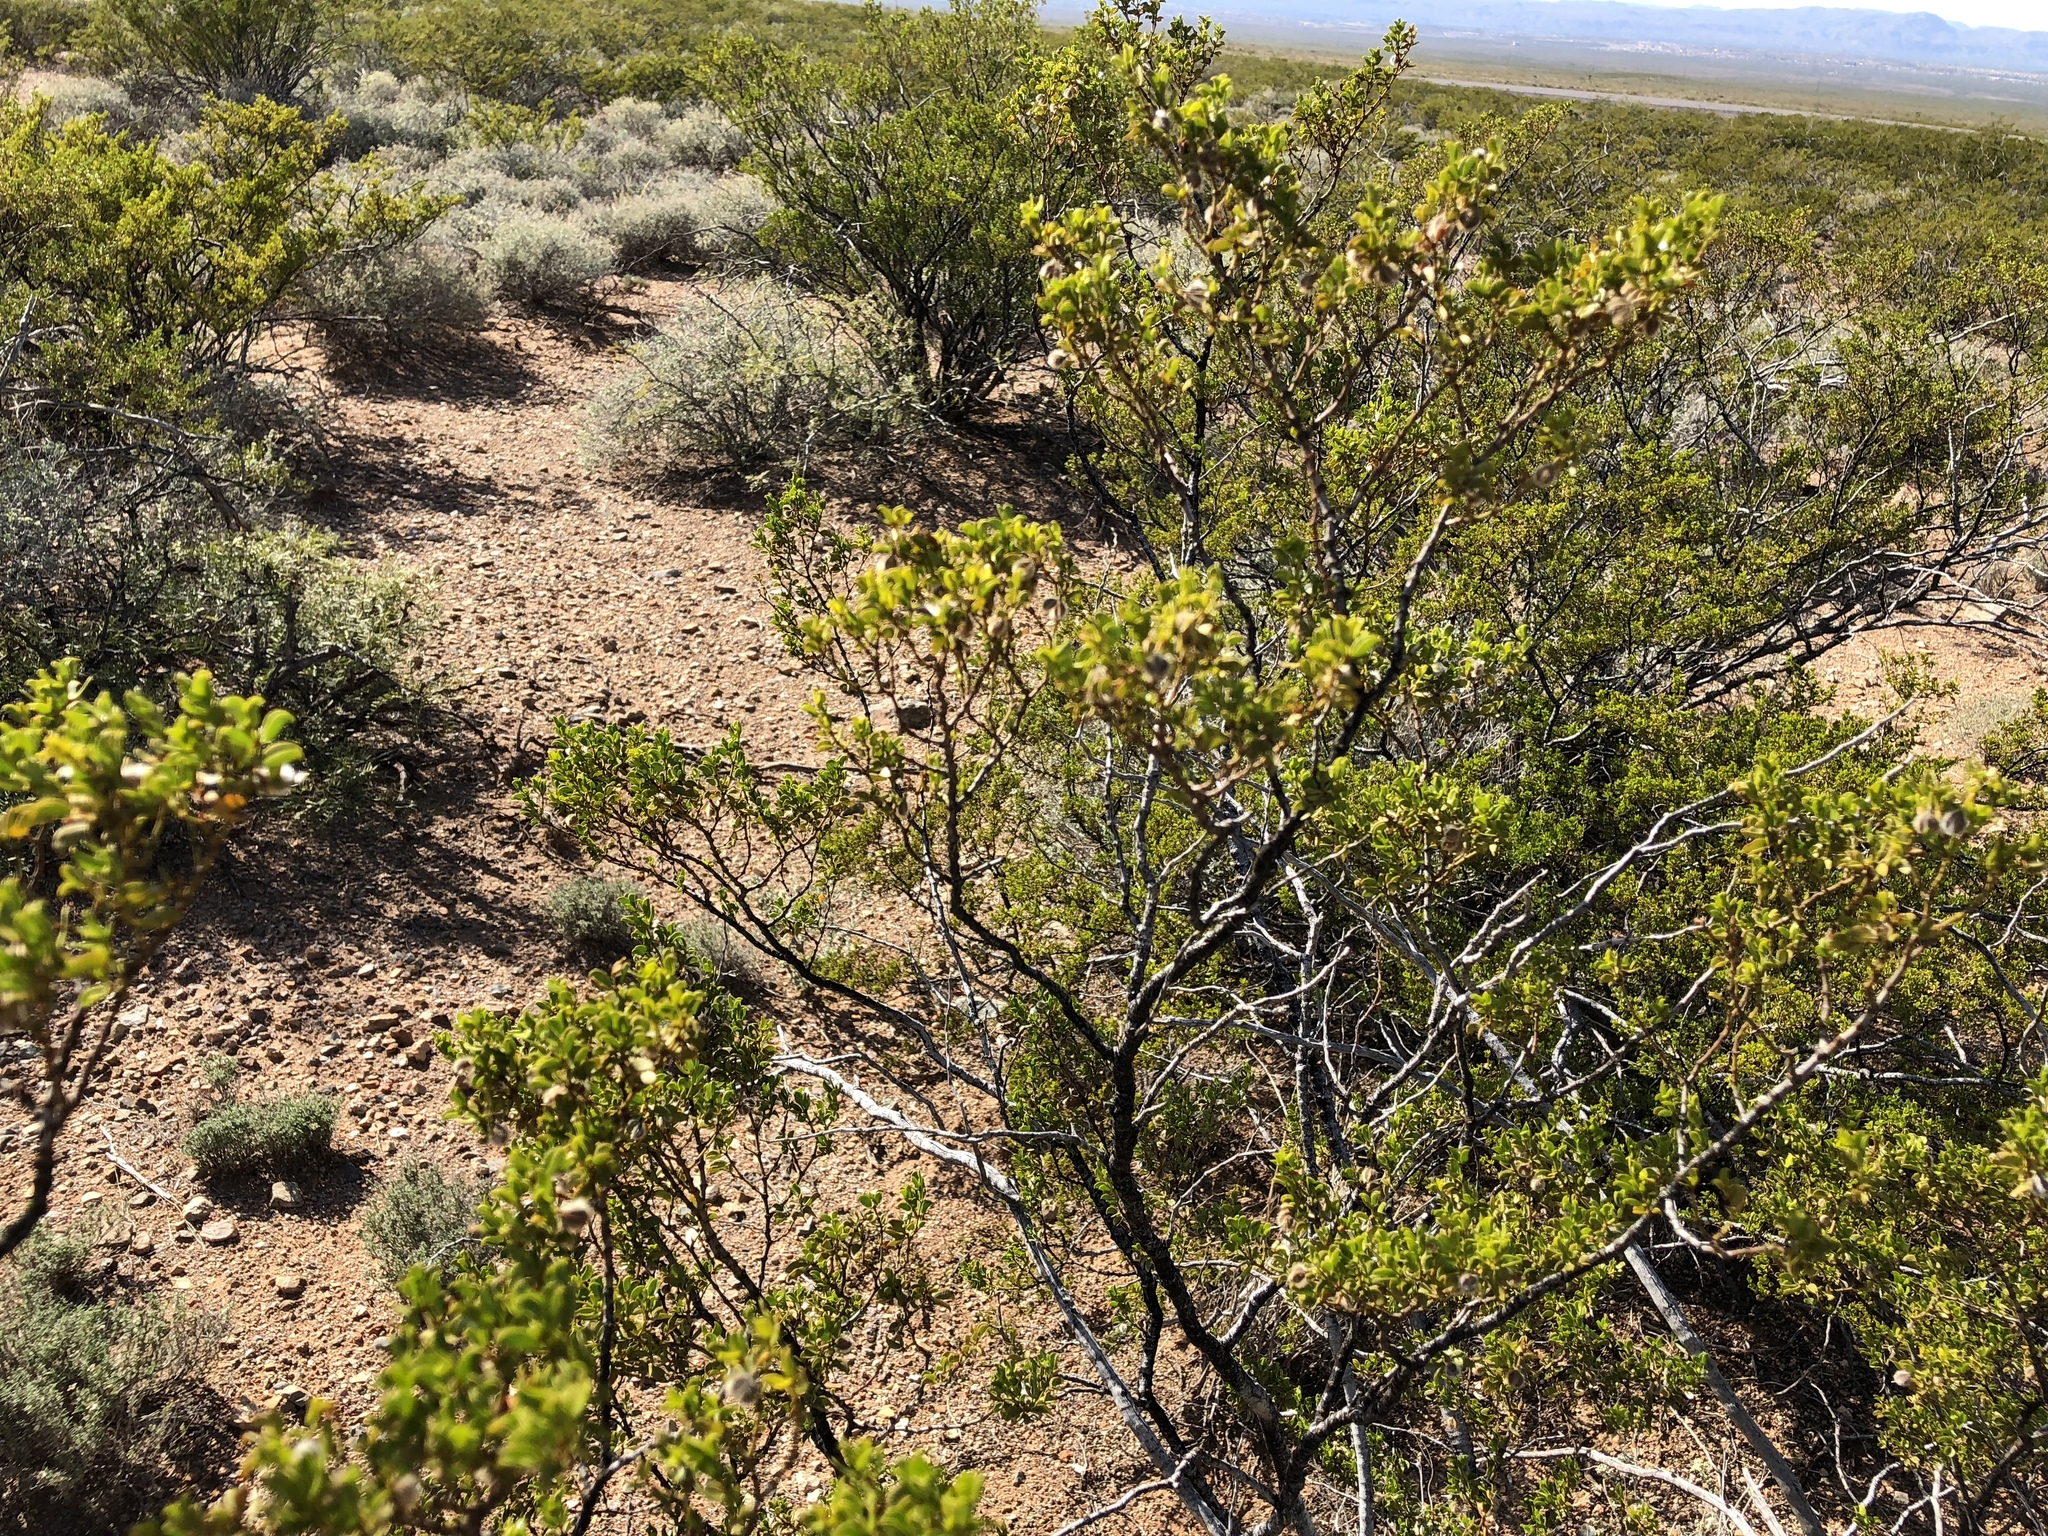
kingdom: Plantae
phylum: Tracheophyta
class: Magnoliopsida
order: Zygophyllales
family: Zygophyllaceae
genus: Larrea
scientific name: Larrea tridentata
